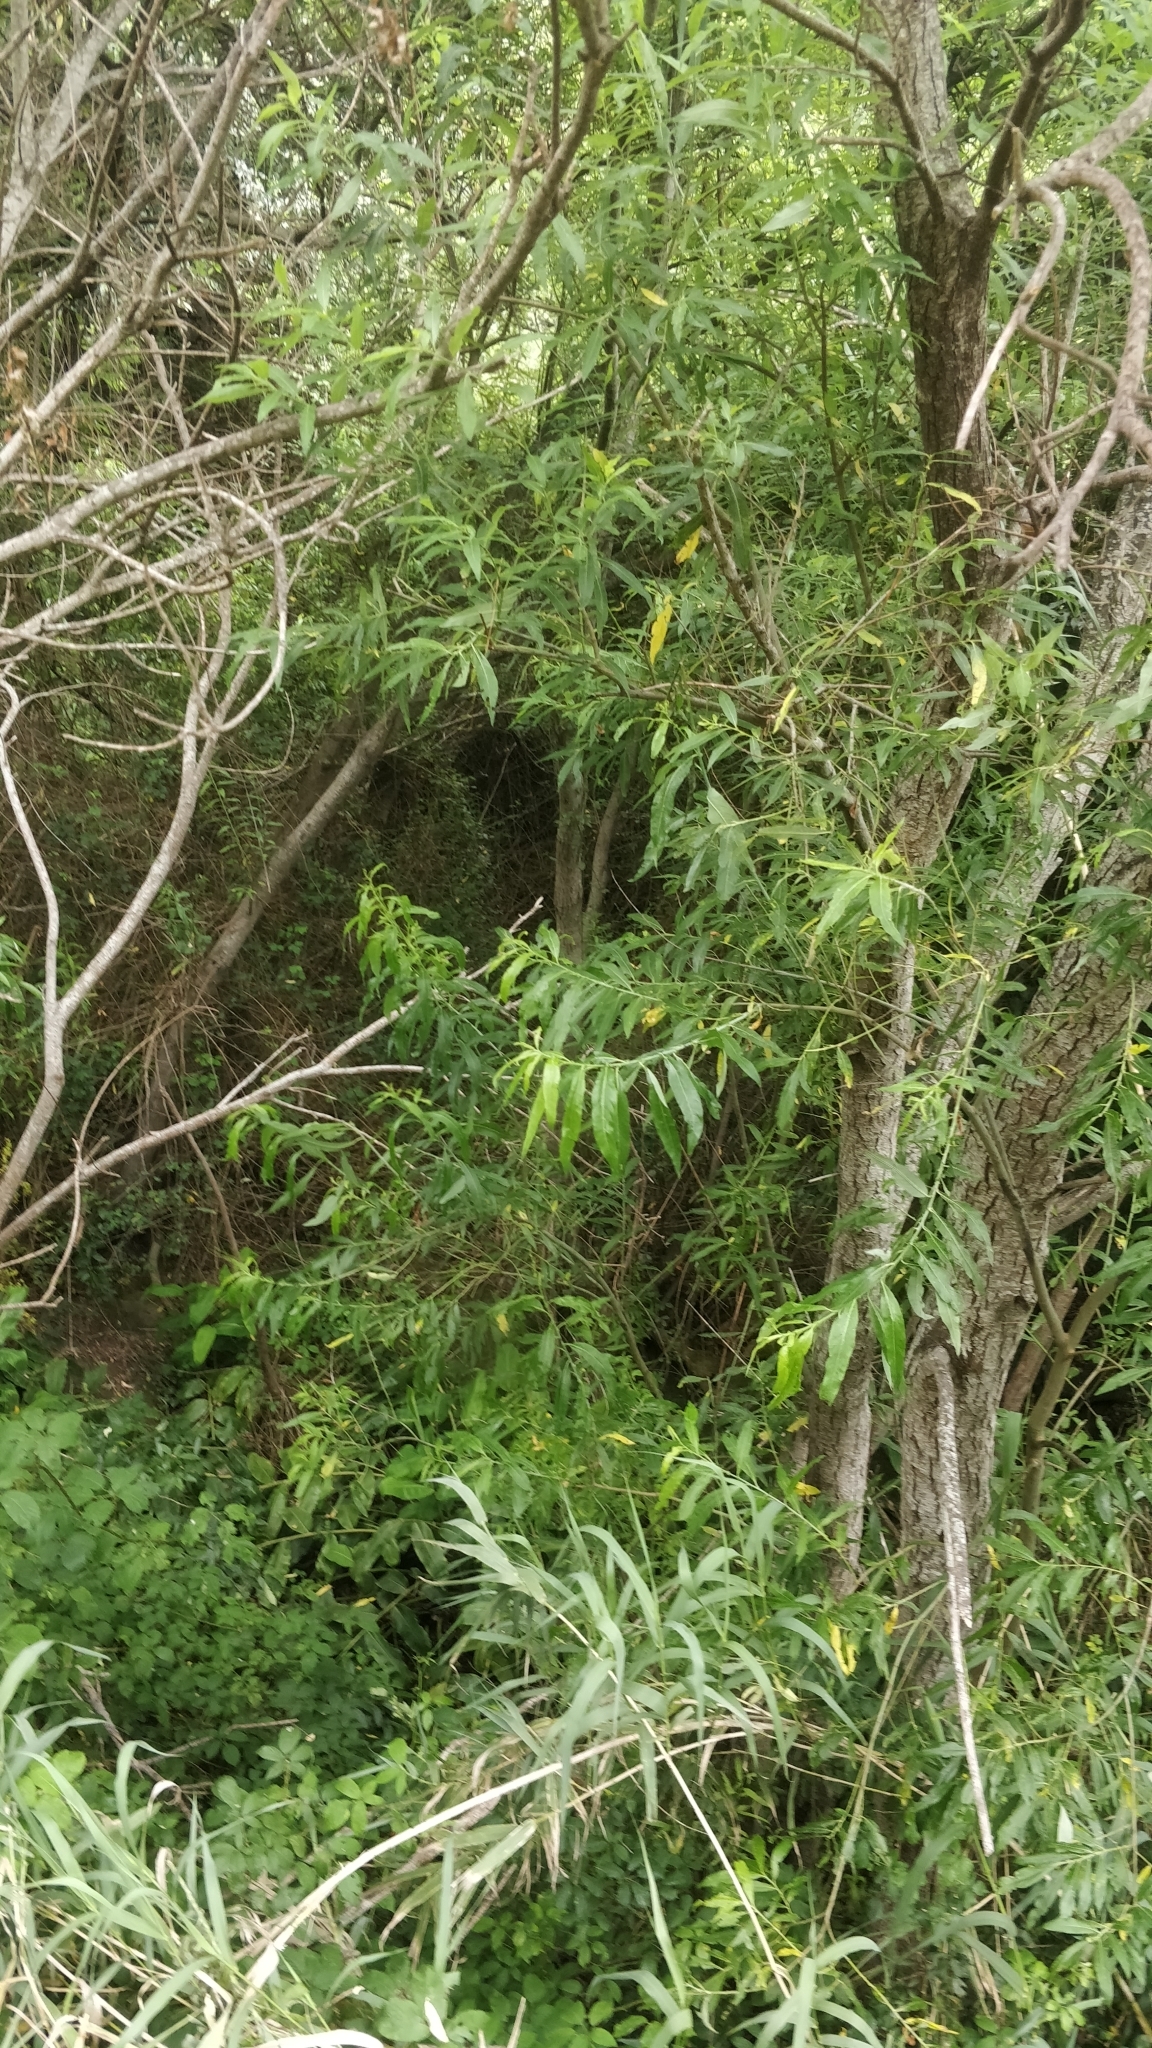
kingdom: Plantae
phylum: Tracheophyta
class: Magnoliopsida
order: Malpighiales
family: Salicaceae
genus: Salix
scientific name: Salix canariensis
